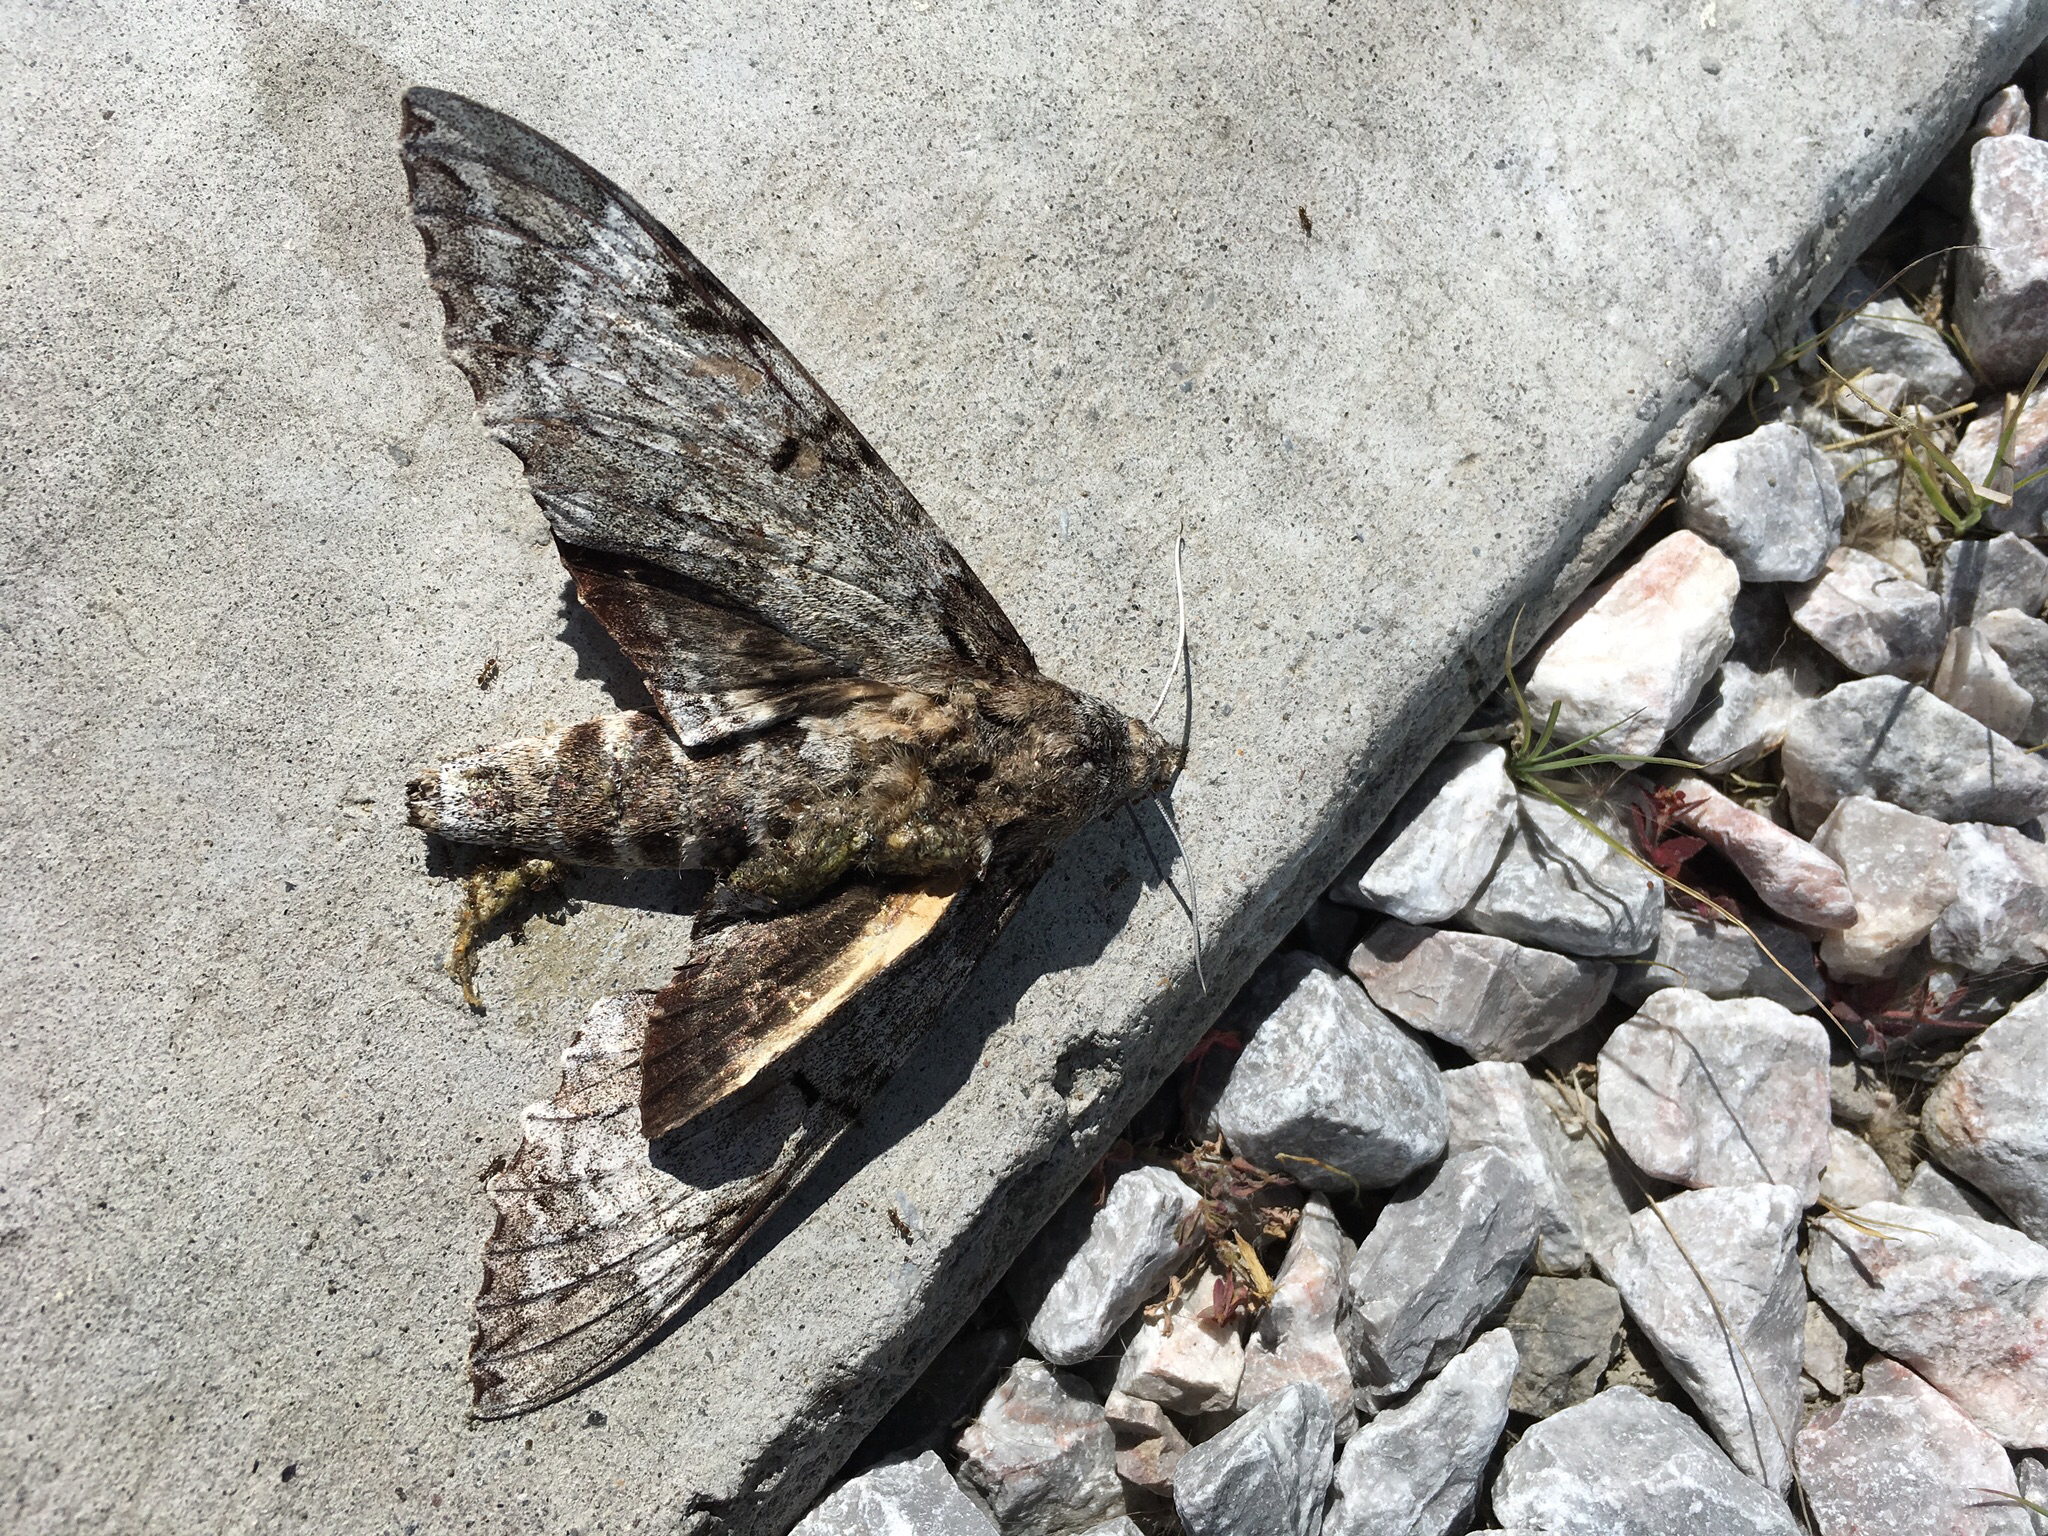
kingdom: Animalia
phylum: Arthropoda
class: Insecta
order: Lepidoptera
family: Sphingidae
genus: Pseudosphinx
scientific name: Pseudosphinx tetrio
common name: Tetrio sphinx
